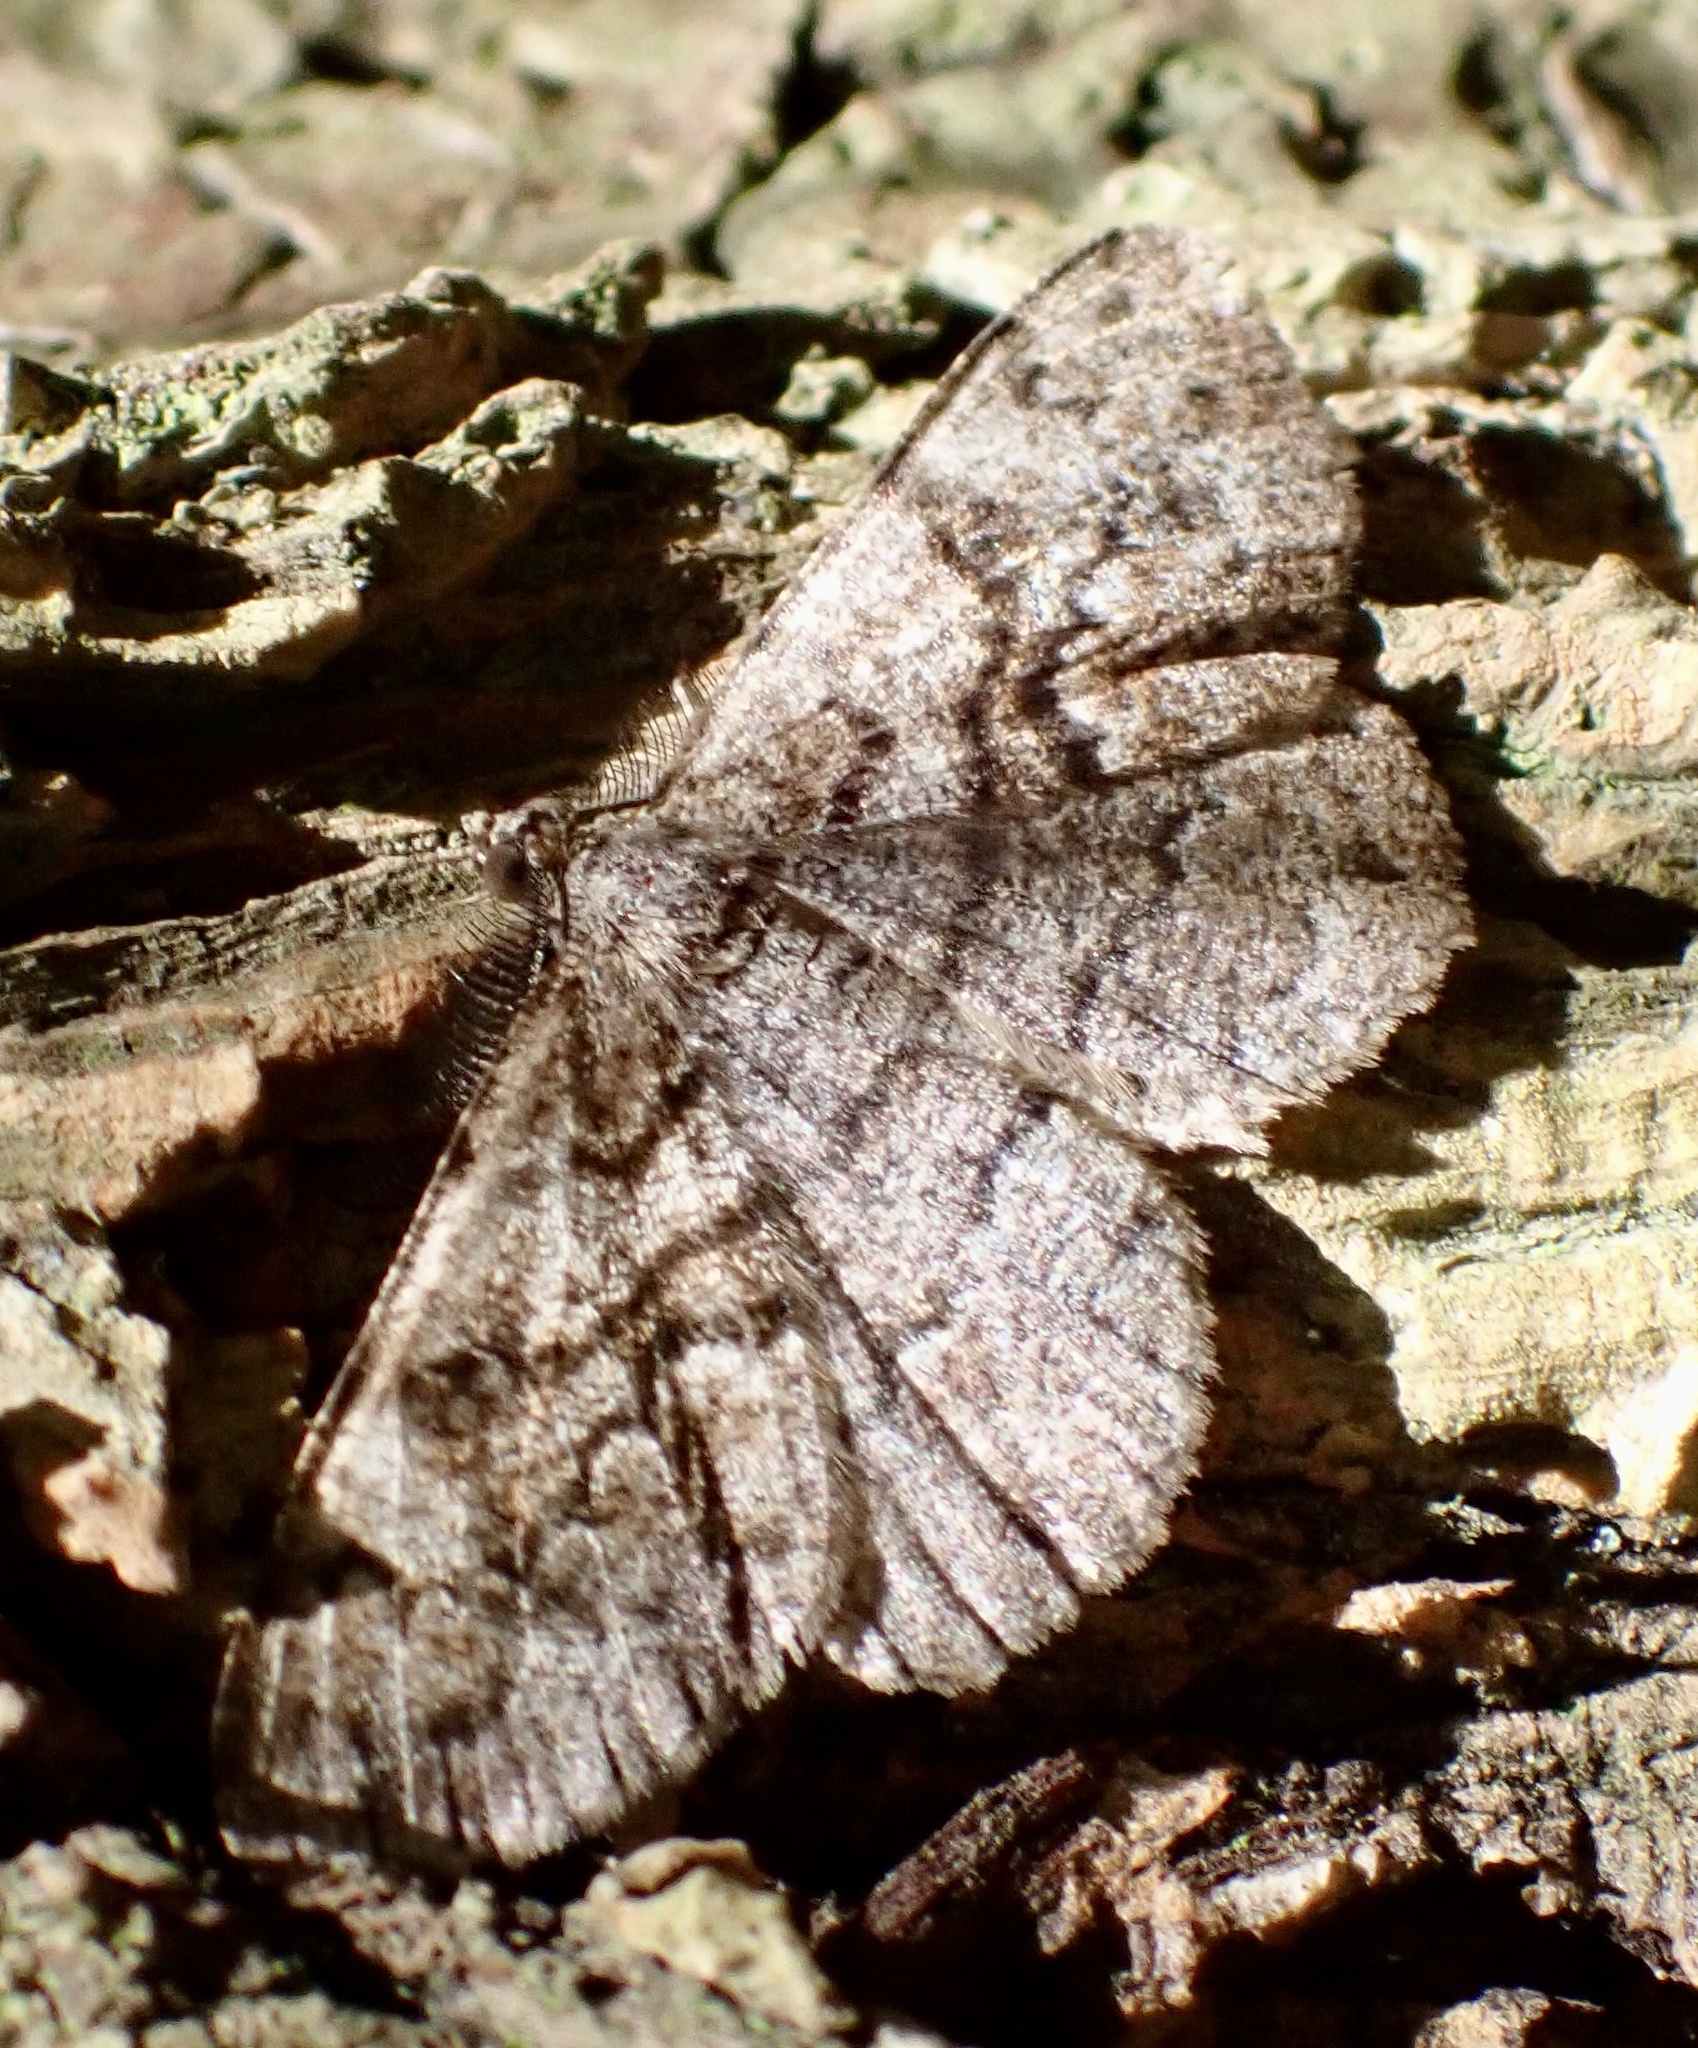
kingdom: Animalia
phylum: Arthropoda
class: Insecta
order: Lepidoptera
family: Geometridae
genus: Peribatodes
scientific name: Peribatodes secundaria
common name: Feathered beauty
